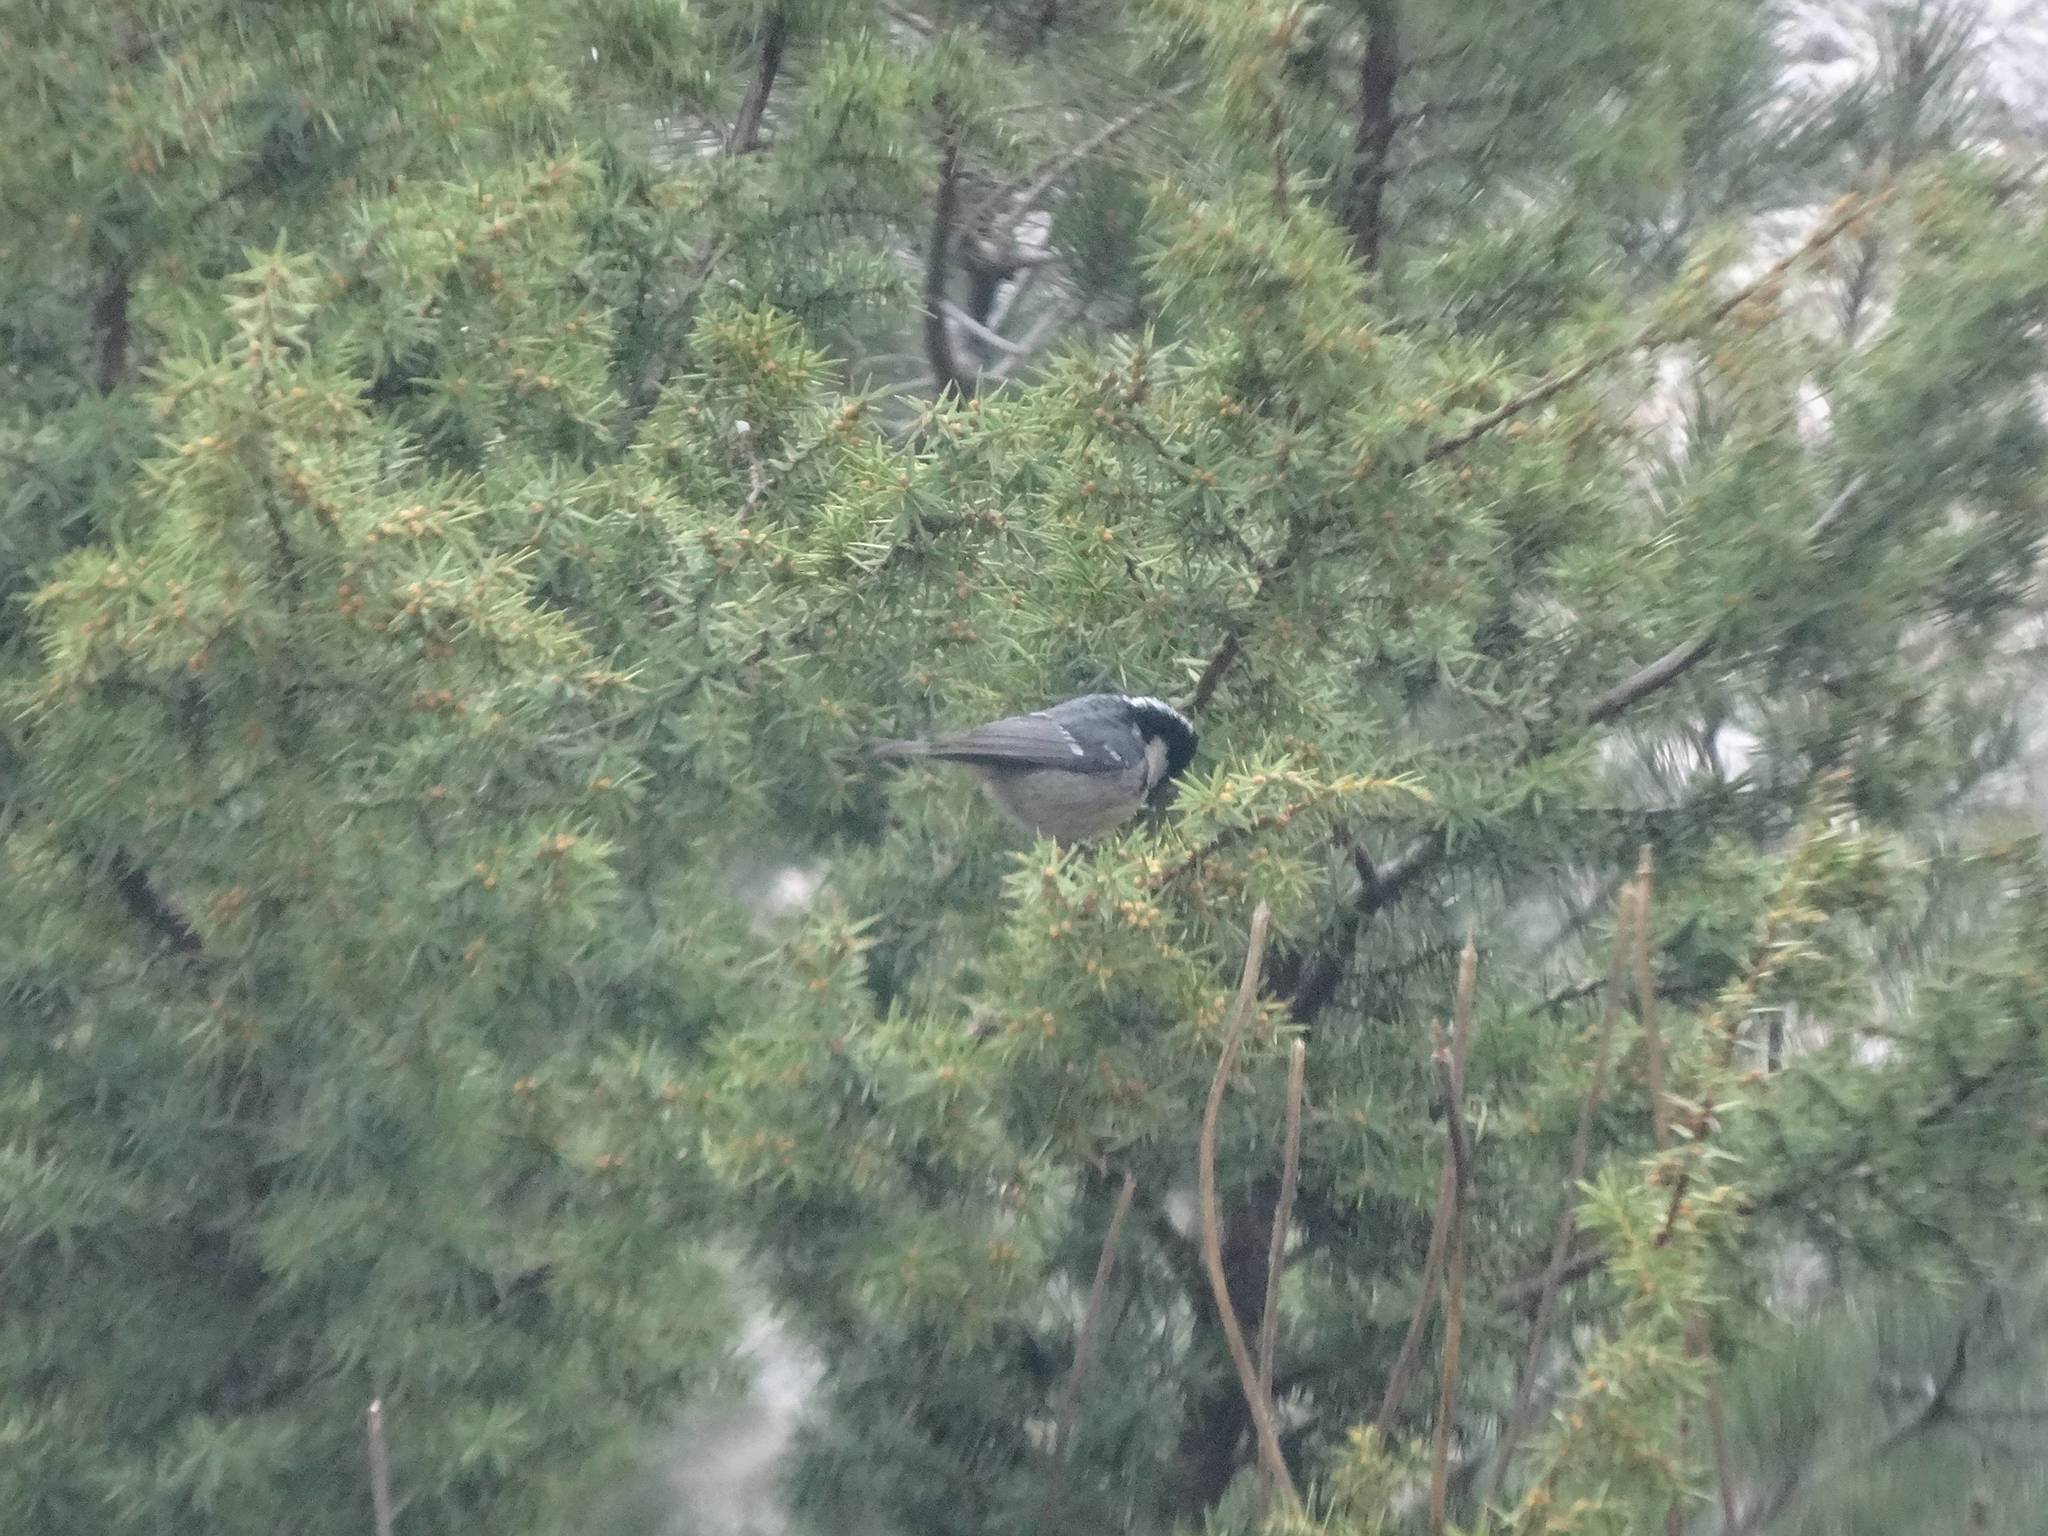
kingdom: Animalia
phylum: Chordata
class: Aves
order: Passeriformes
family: Paridae
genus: Periparus
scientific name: Periparus ater
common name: Coal tit
